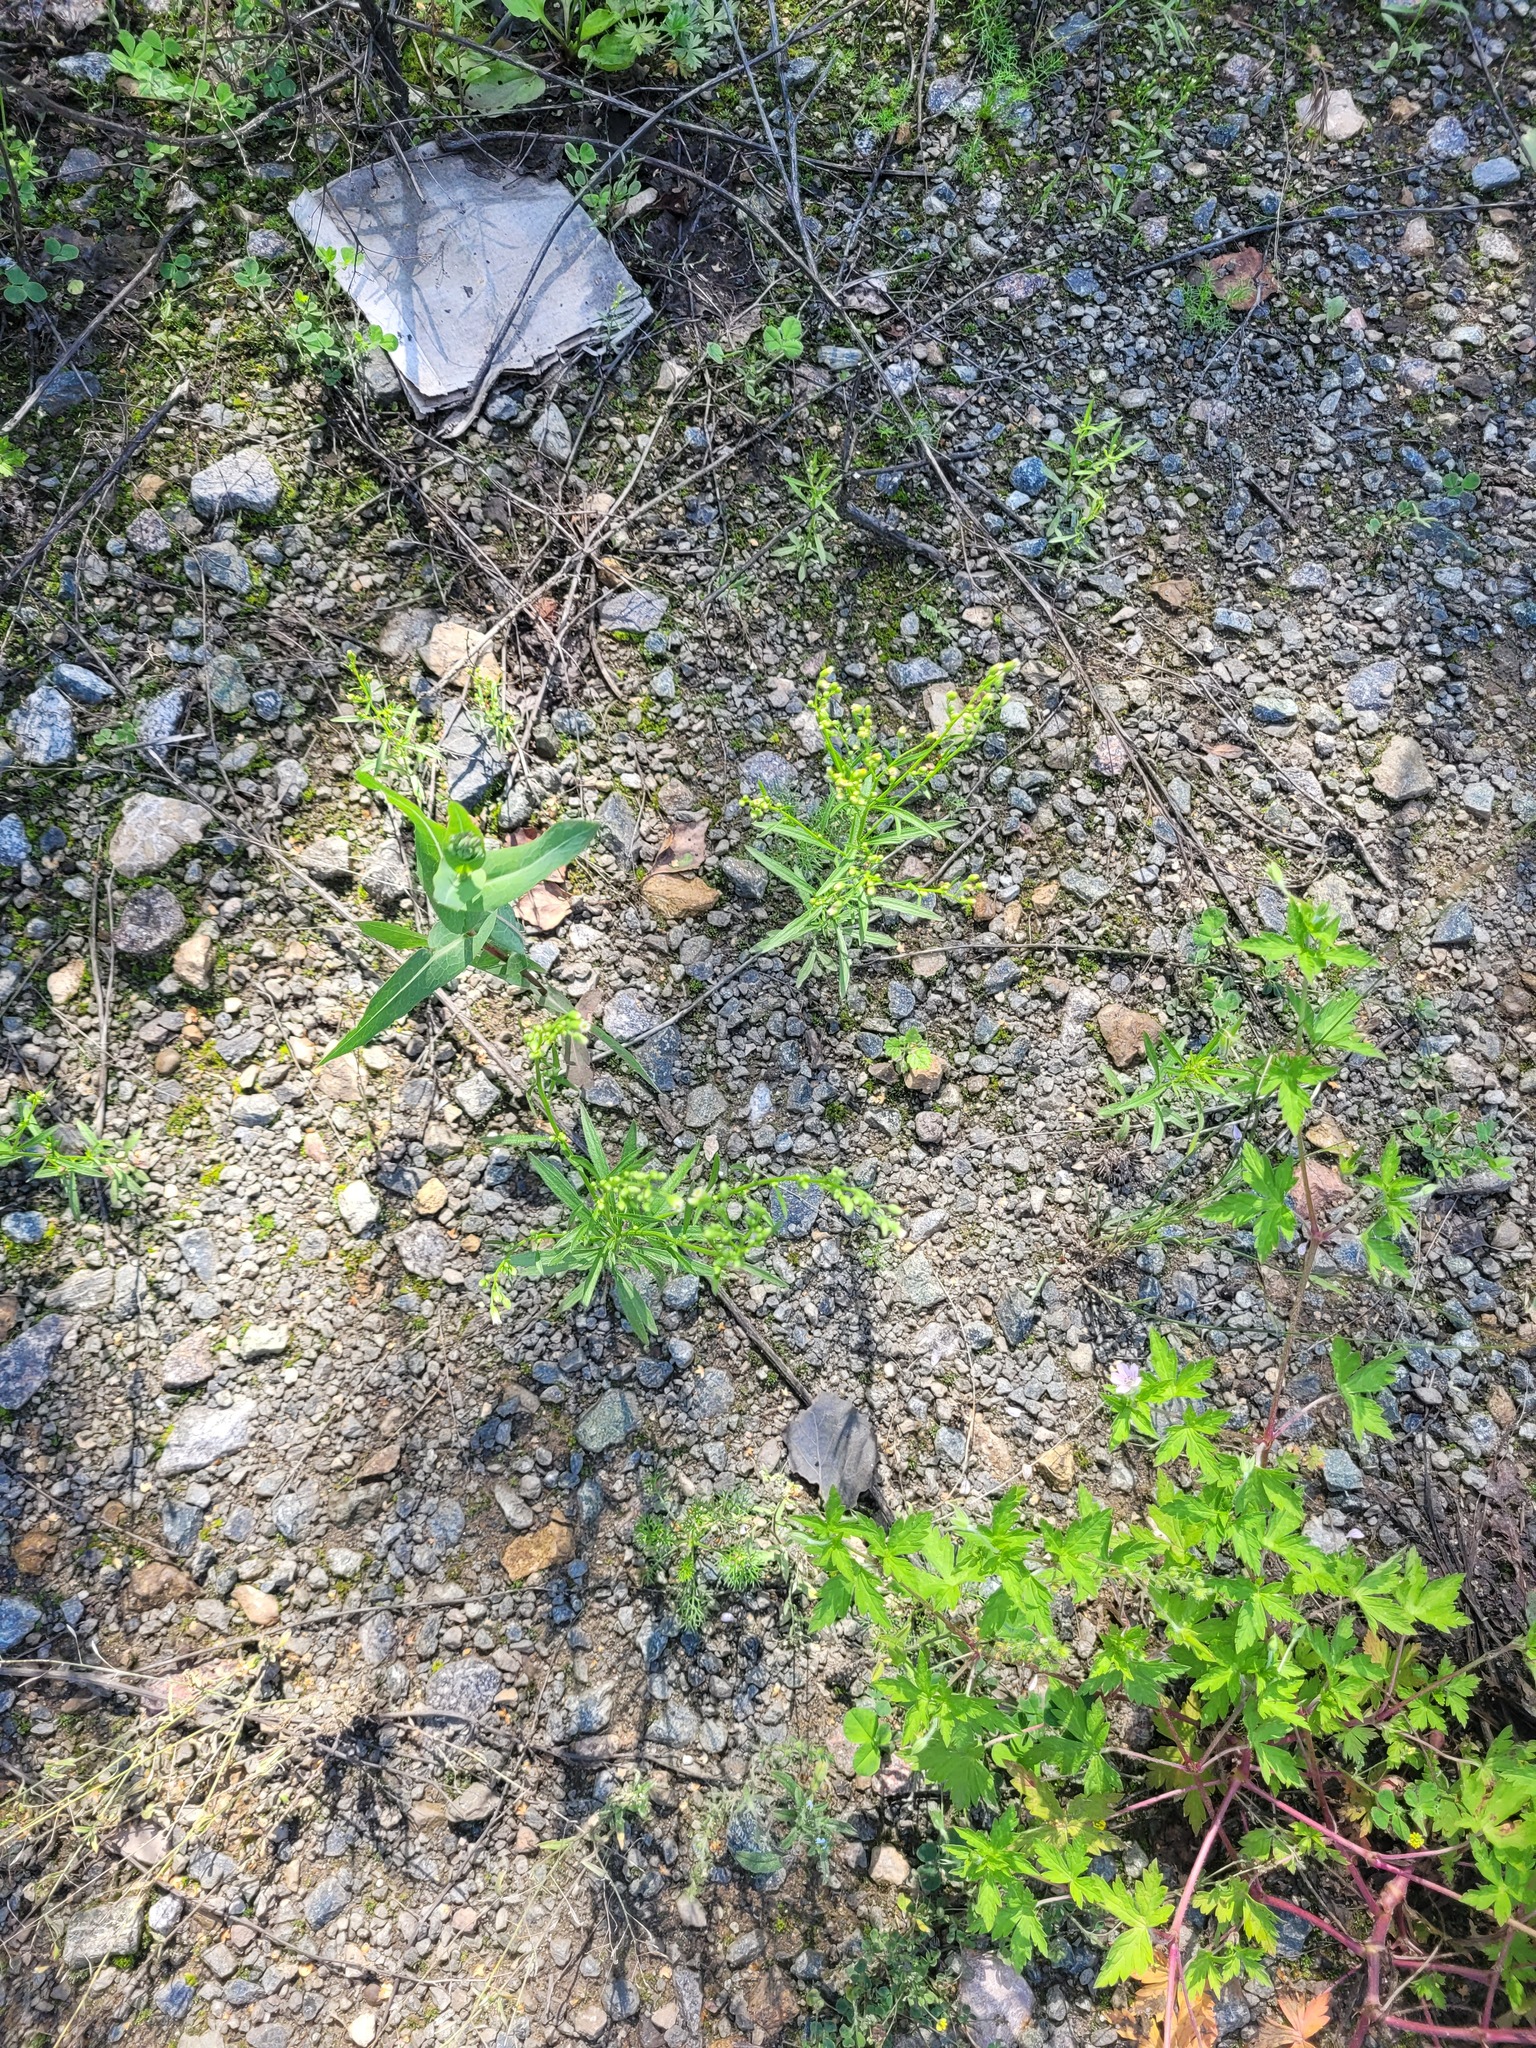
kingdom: Plantae
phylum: Tracheophyta
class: Magnoliopsida
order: Asterales
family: Asteraceae
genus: Erigeron
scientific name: Erigeron canadensis
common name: Canadian fleabane
